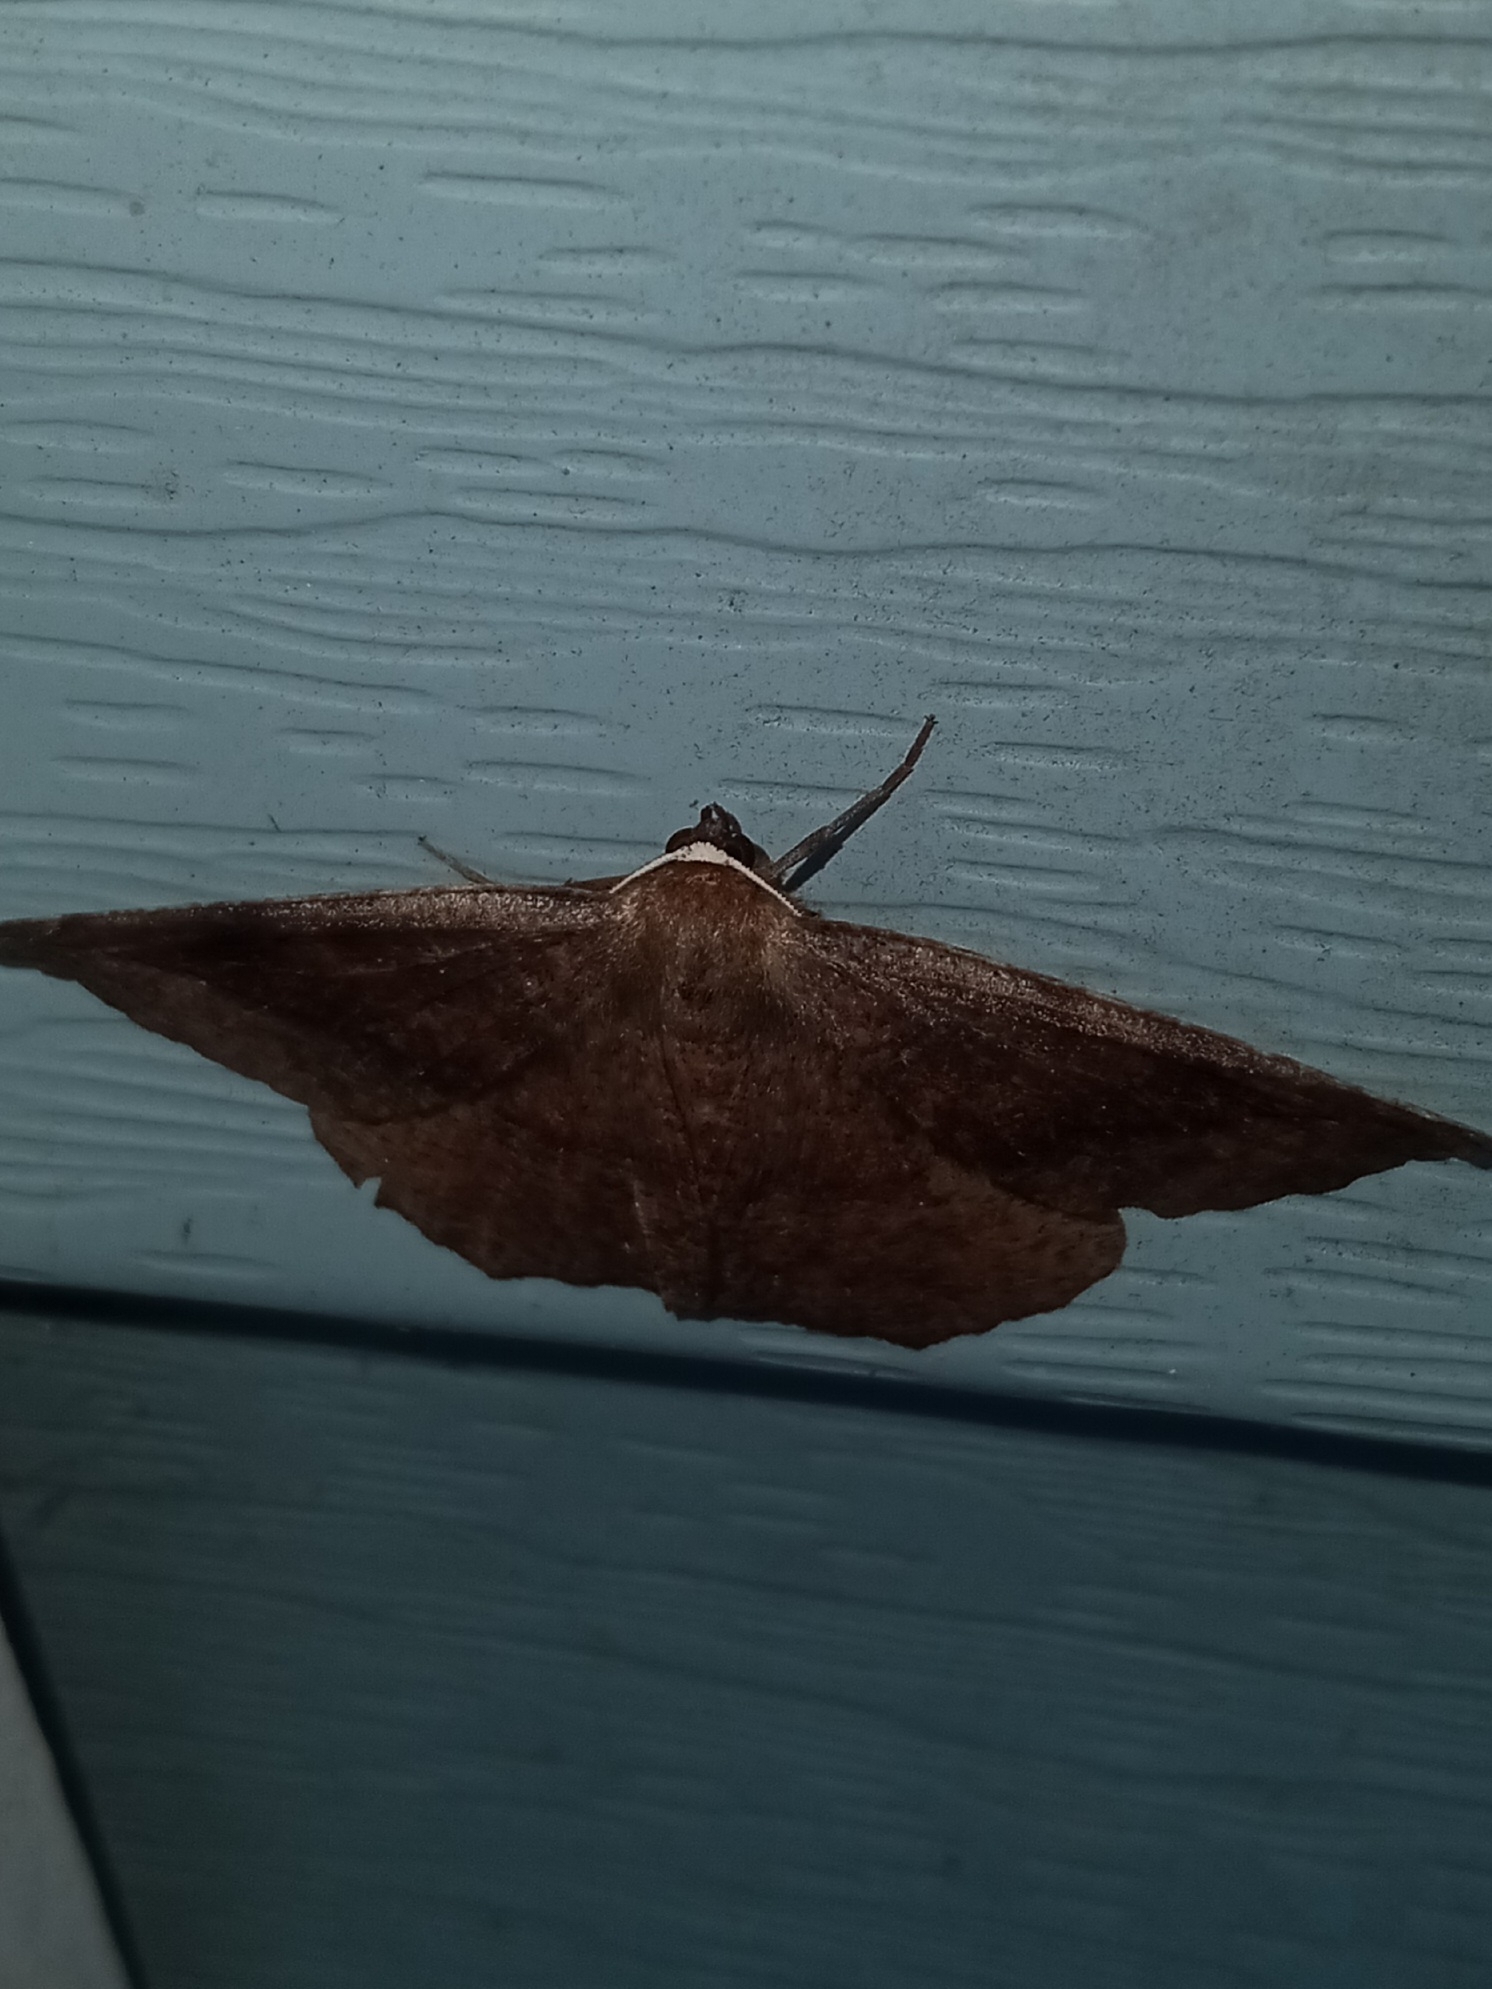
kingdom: Animalia
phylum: Arthropoda
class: Insecta
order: Lepidoptera
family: Geometridae
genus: Eutrapela
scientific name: Eutrapela clemataria
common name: Curved-toothed geometer
